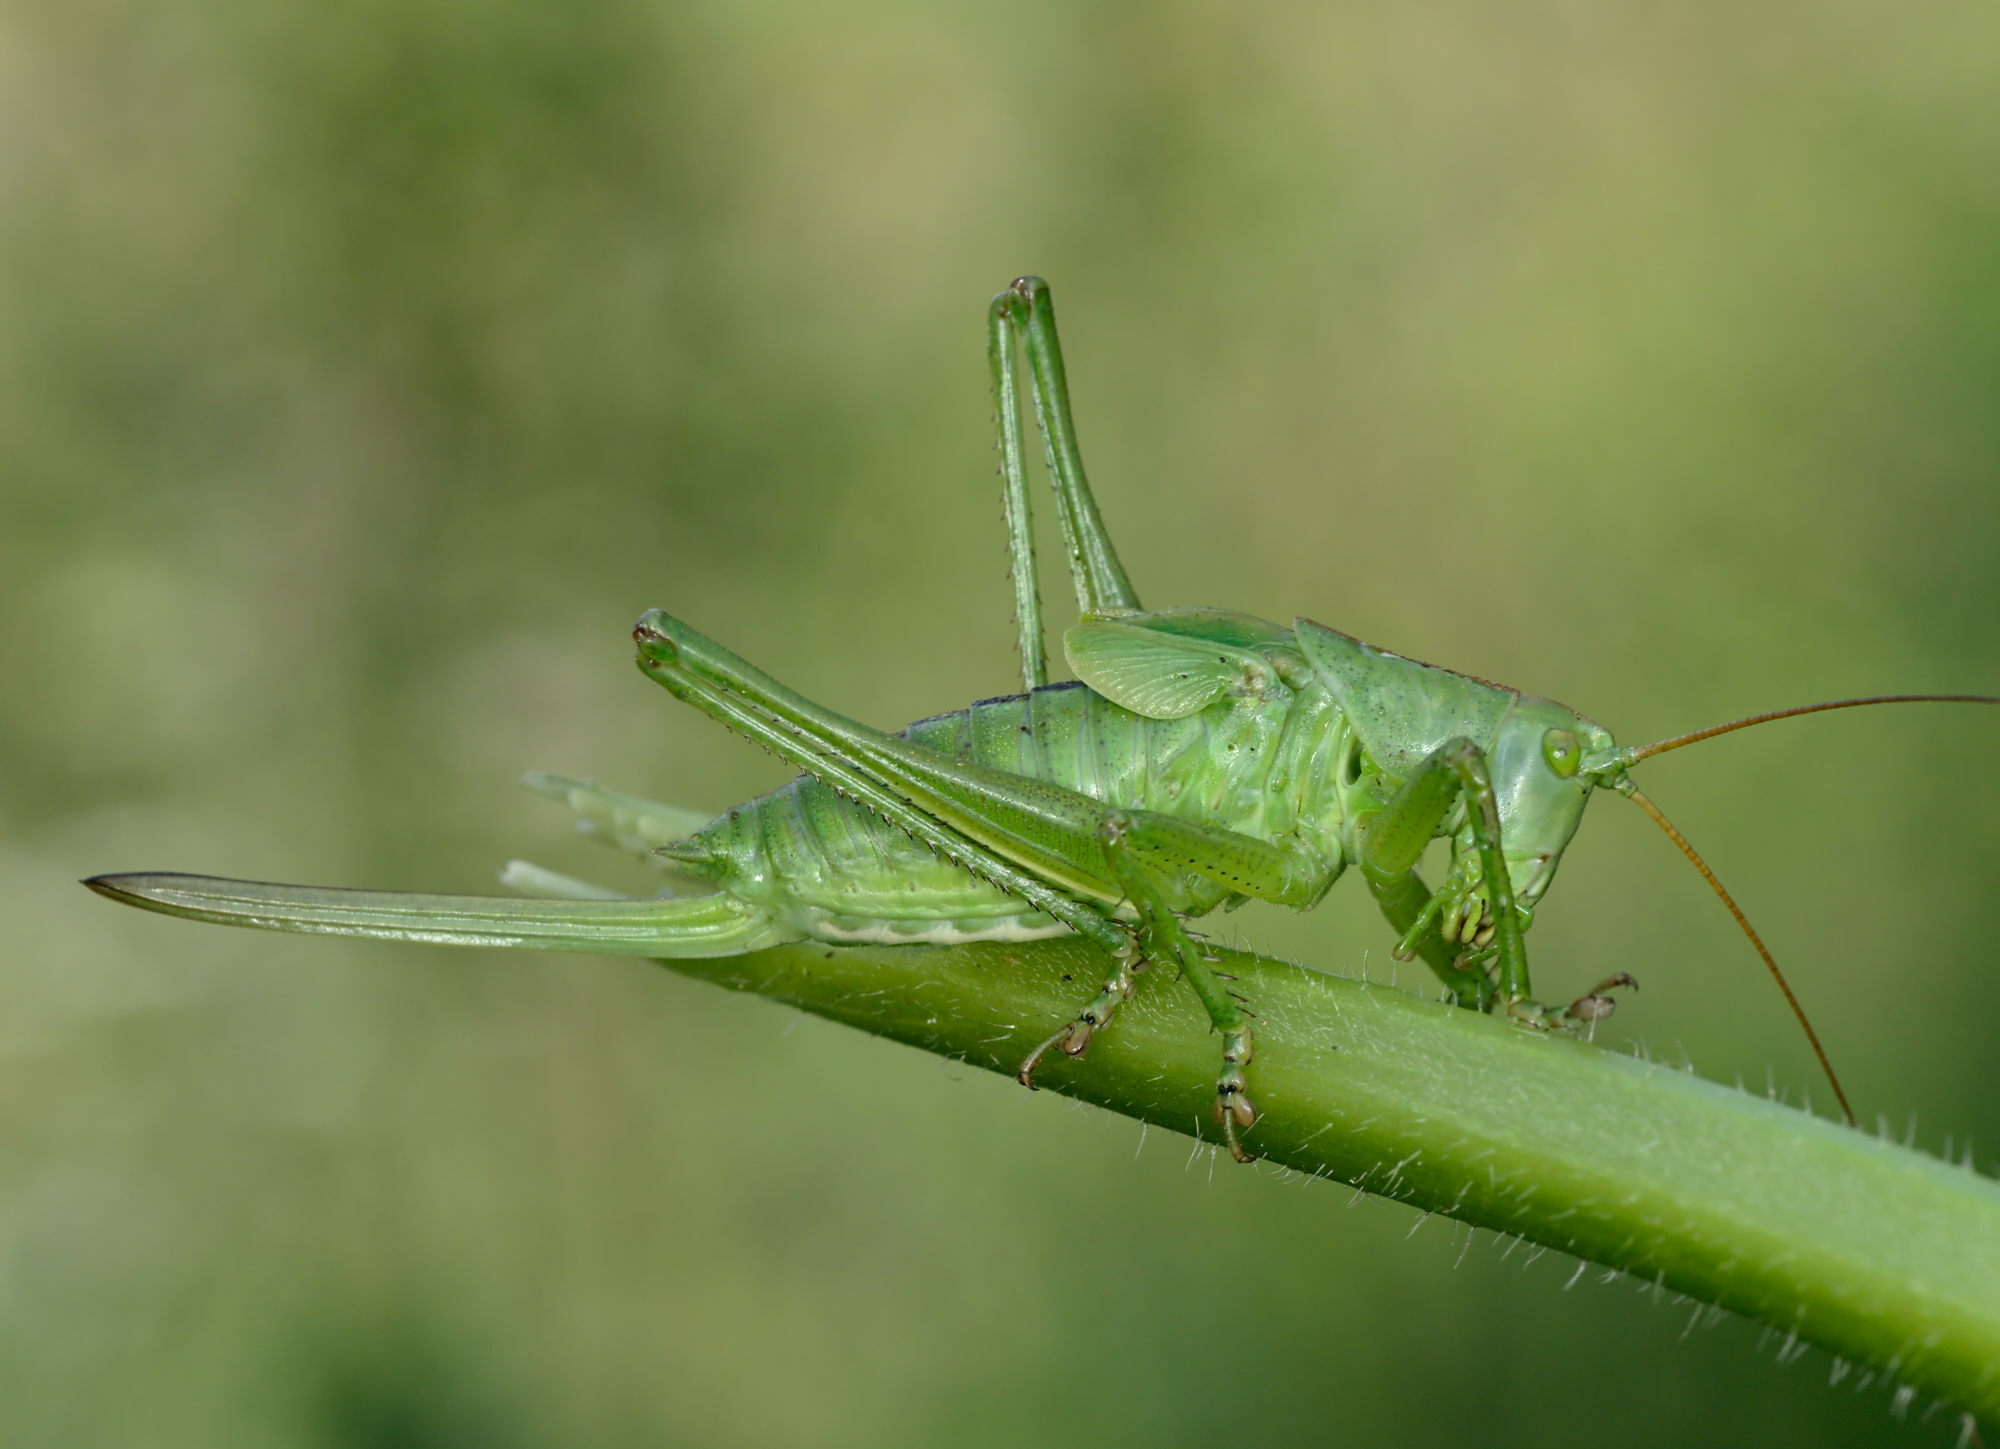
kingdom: Animalia
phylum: Arthropoda
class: Insecta
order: Orthoptera
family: Tettigoniidae
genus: Tettigonia
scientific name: Tettigonia cantans
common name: Upland green bush-cricket
